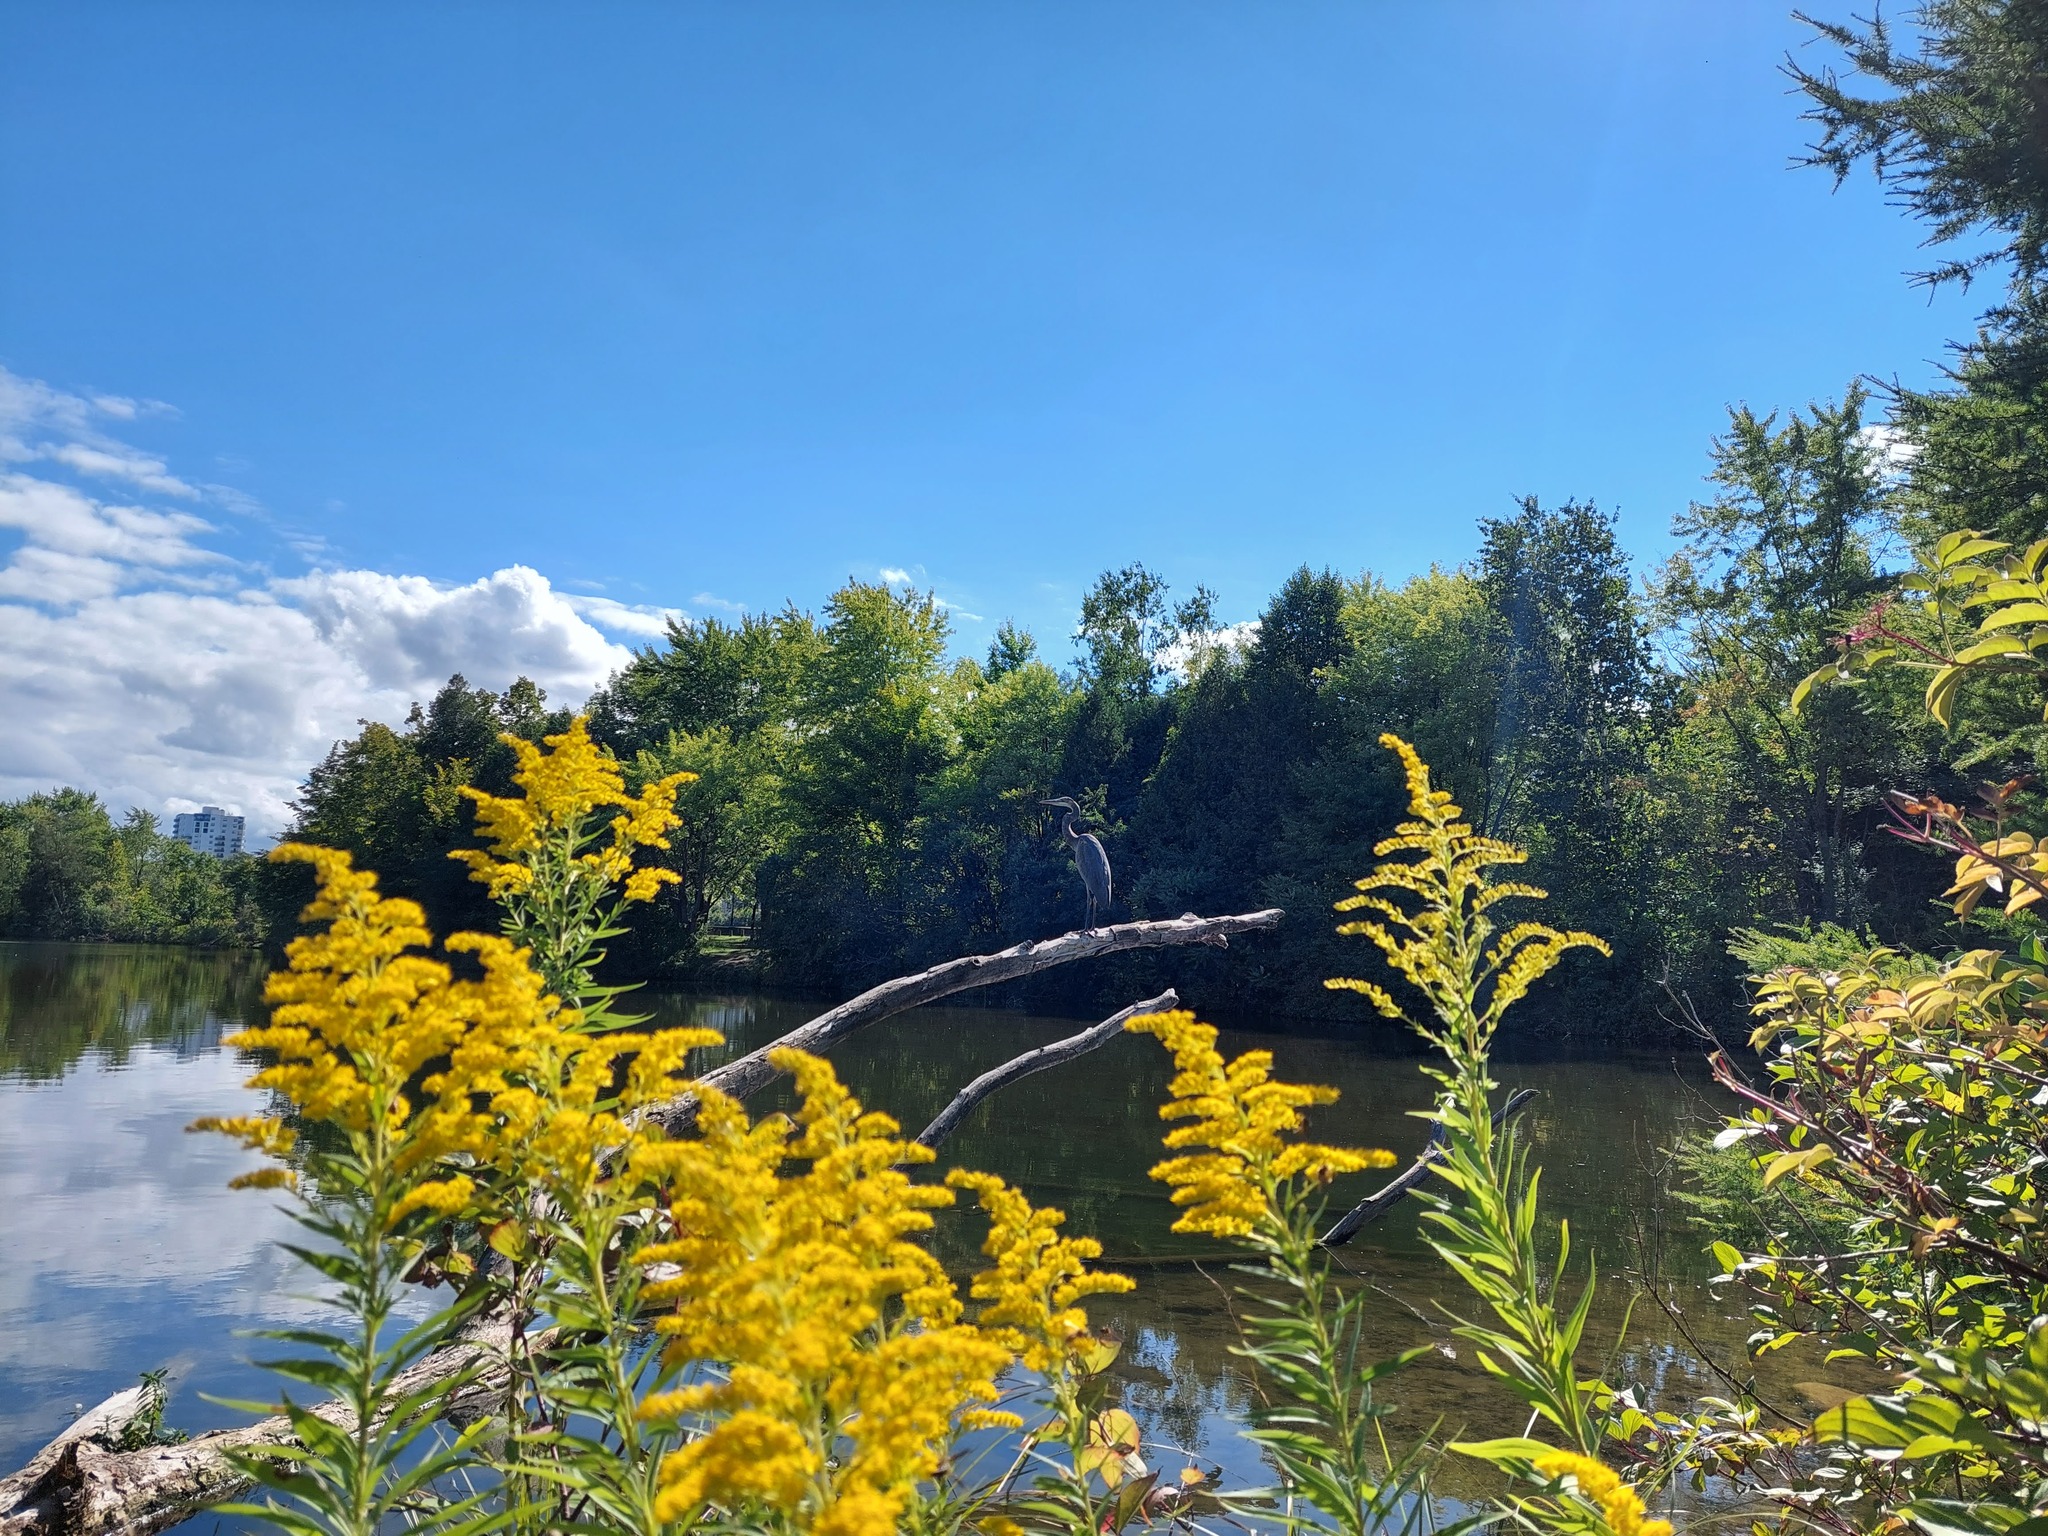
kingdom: Animalia
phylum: Chordata
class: Aves
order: Pelecaniformes
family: Ardeidae
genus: Ardea
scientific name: Ardea herodias
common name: Great blue heron
